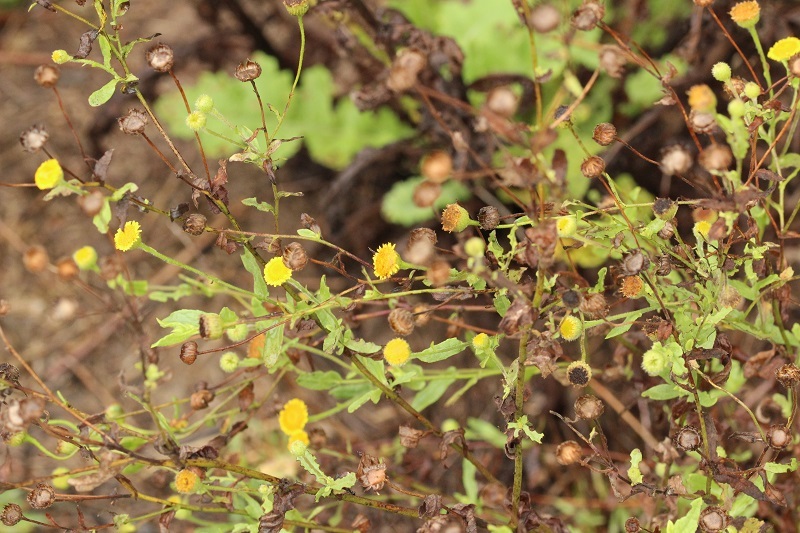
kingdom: Plantae
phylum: Tracheophyta
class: Magnoliopsida
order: Asterales
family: Asteraceae
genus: Pulicaria
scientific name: Pulicaria scabra
